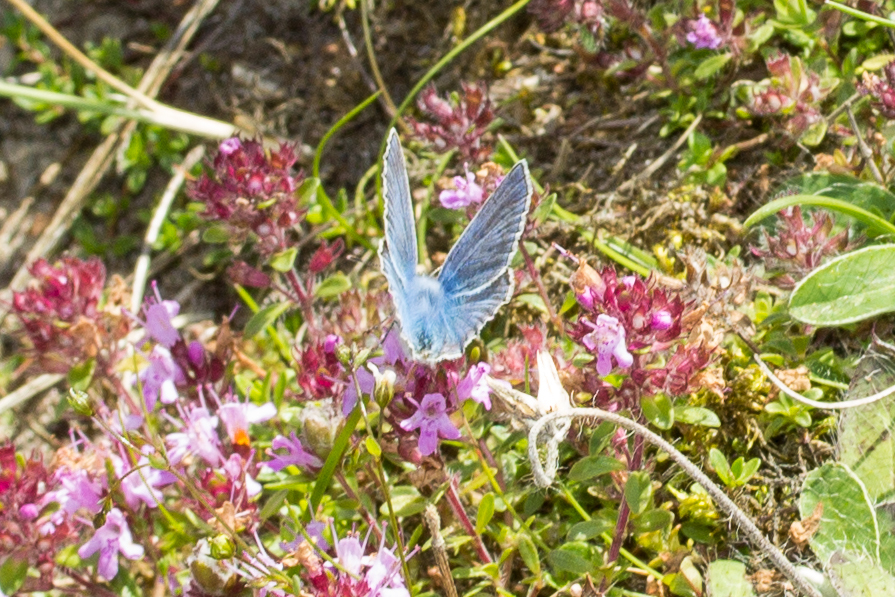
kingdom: Animalia
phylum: Arthropoda
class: Insecta
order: Lepidoptera
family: Lycaenidae
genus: Polyommatus
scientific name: Polyommatus icarus
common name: Common blue
